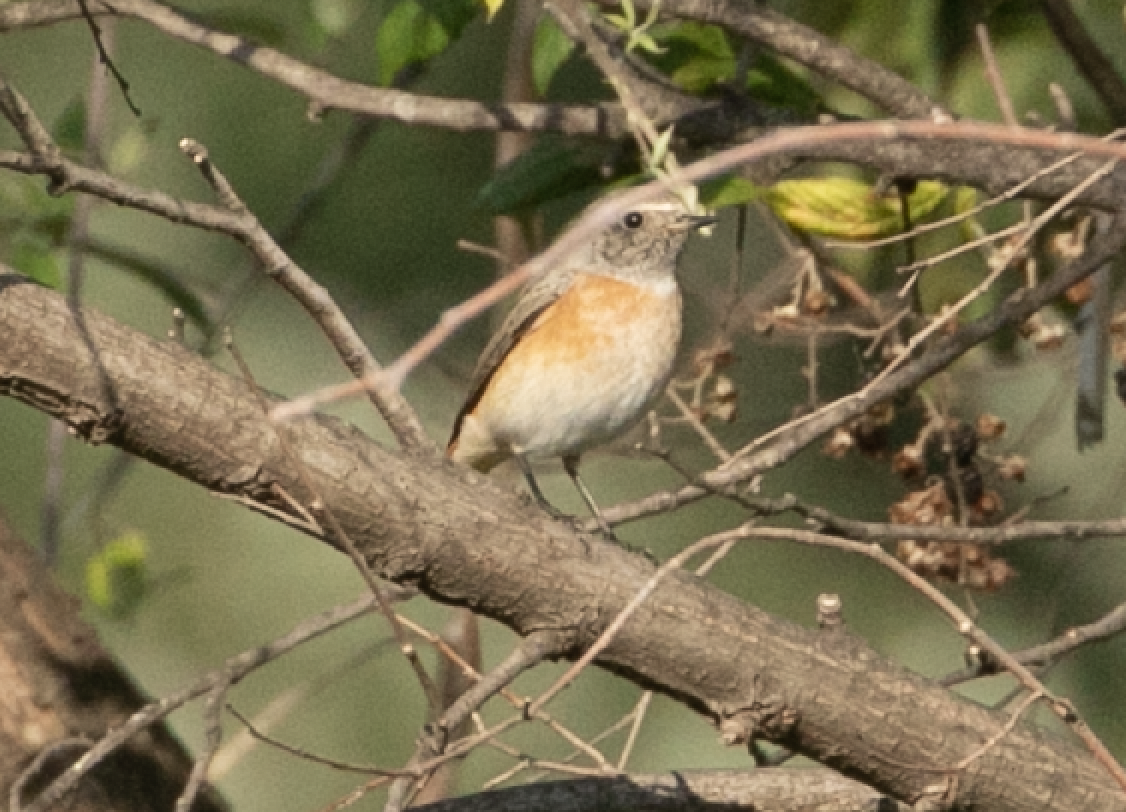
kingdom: Animalia
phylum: Chordata
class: Aves
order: Passeriformes
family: Muscicapidae
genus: Phoenicurus
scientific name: Phoenicurus phoenicurus
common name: Common redstart
